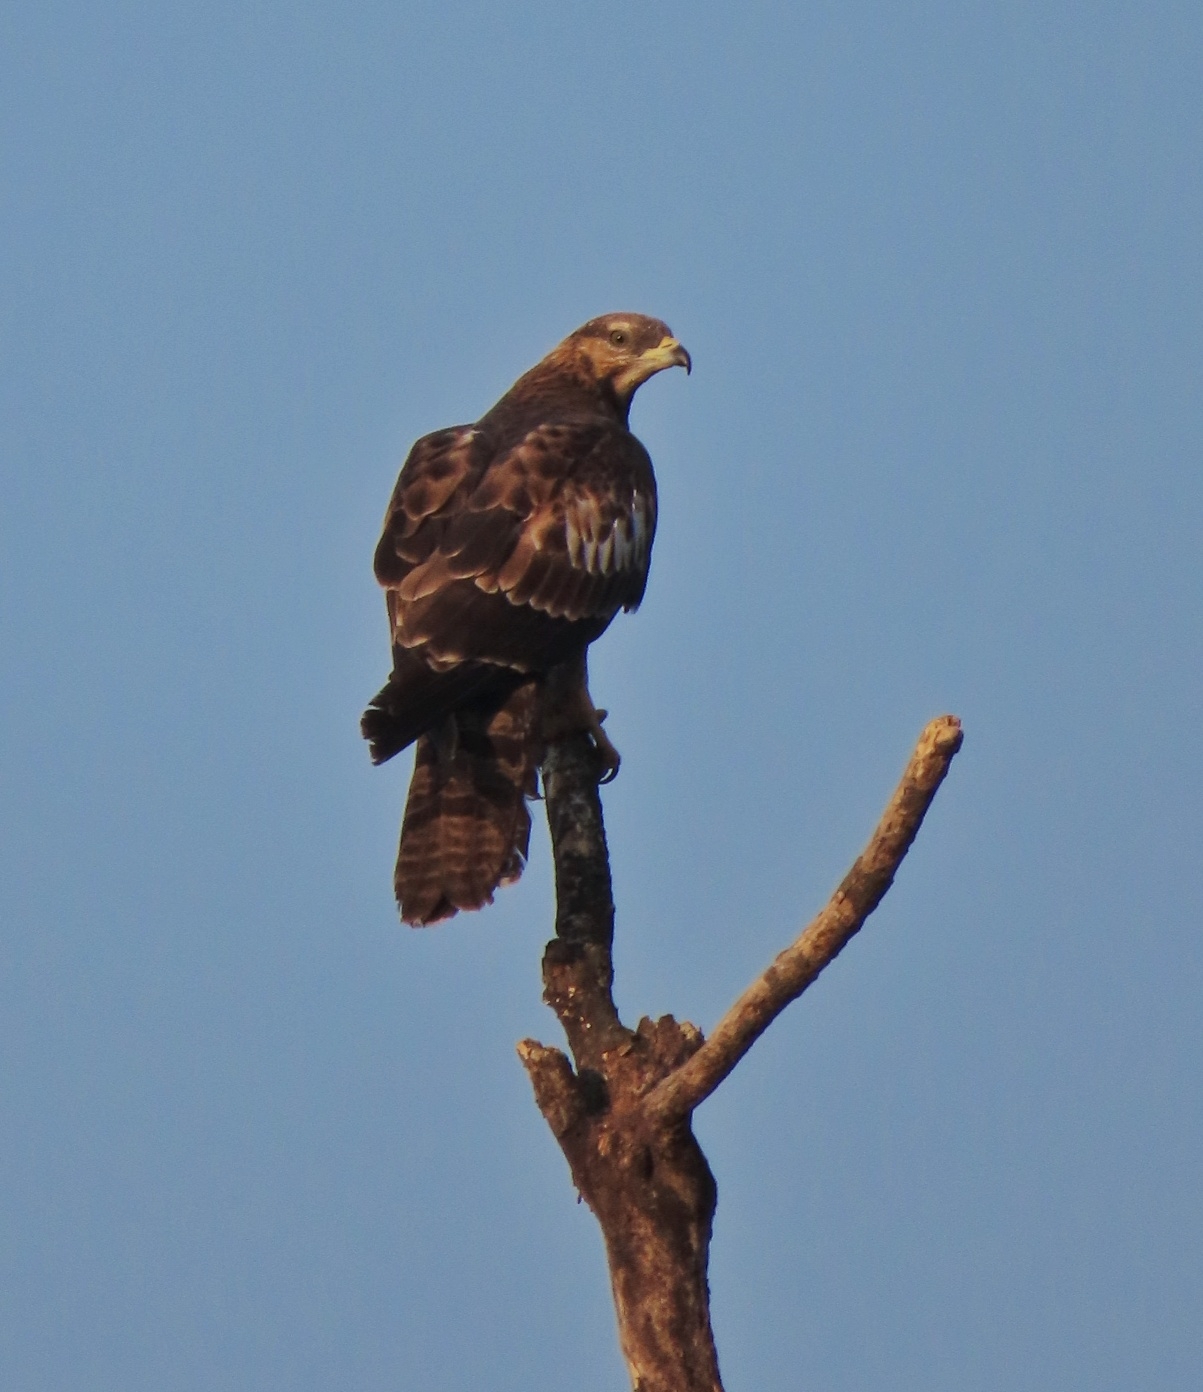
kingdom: Animalia
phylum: Chordata
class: Aves
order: Accipitriformes
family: Accipitridae
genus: Pernis
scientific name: Pernis ptilorhynchus
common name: Crested honey buzzard
